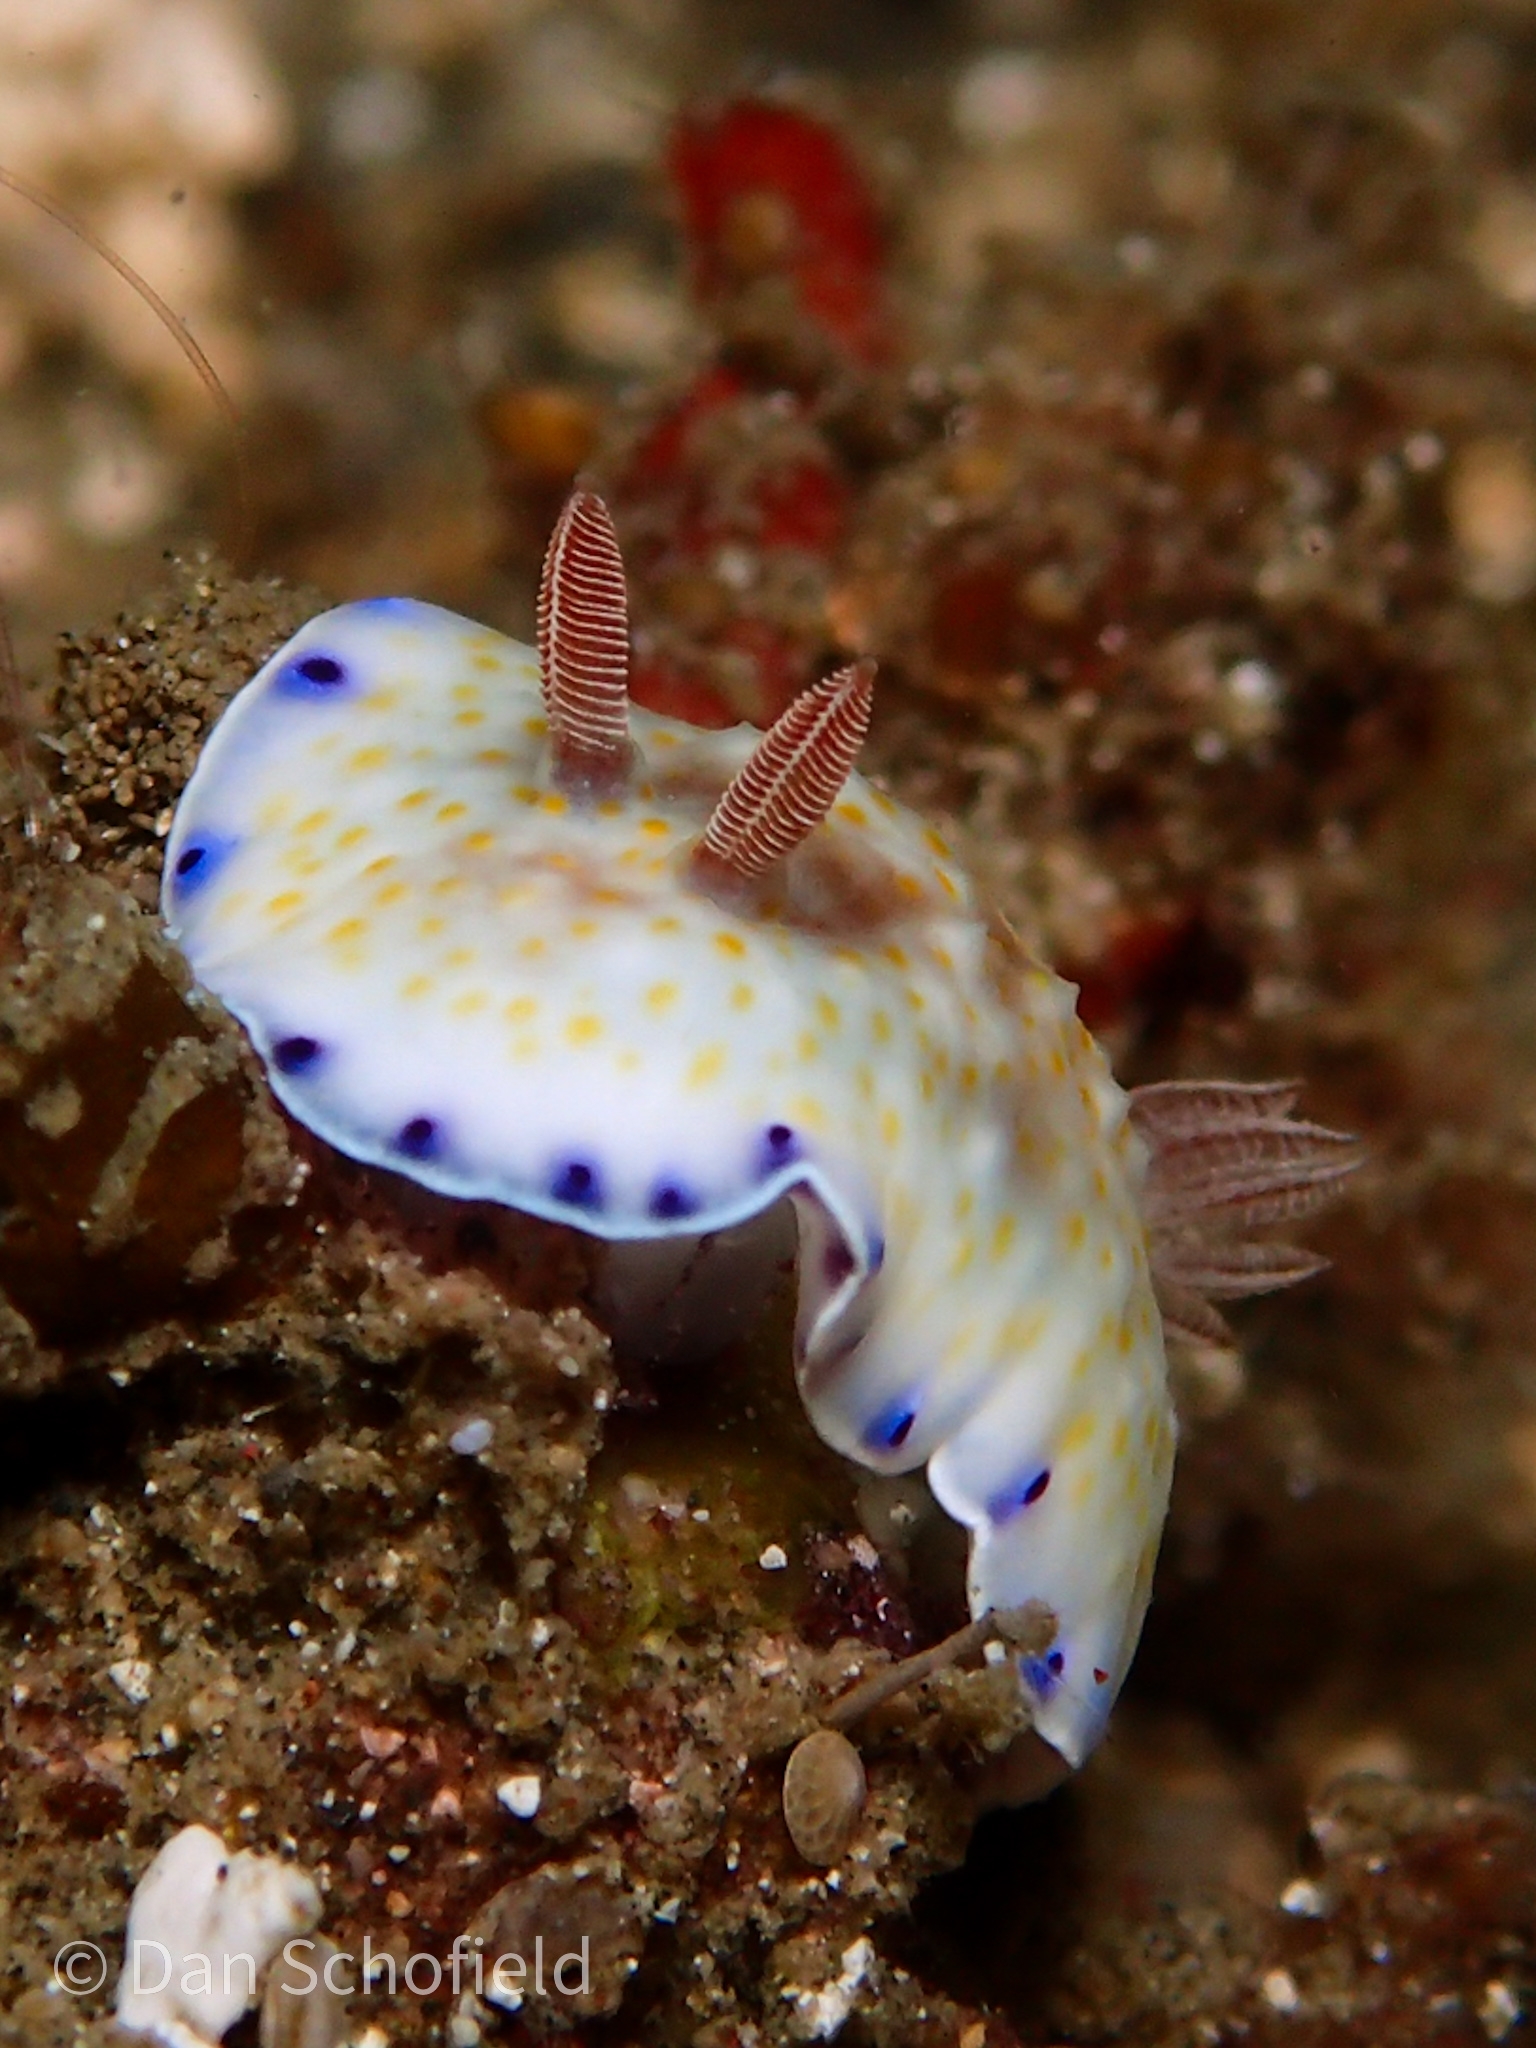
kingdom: Animalia
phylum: Mollusca
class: Gastropoda
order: Nudibranchia
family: Chromodorididae
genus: Goniobranchus
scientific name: Goniobranchus aureopurpureus
